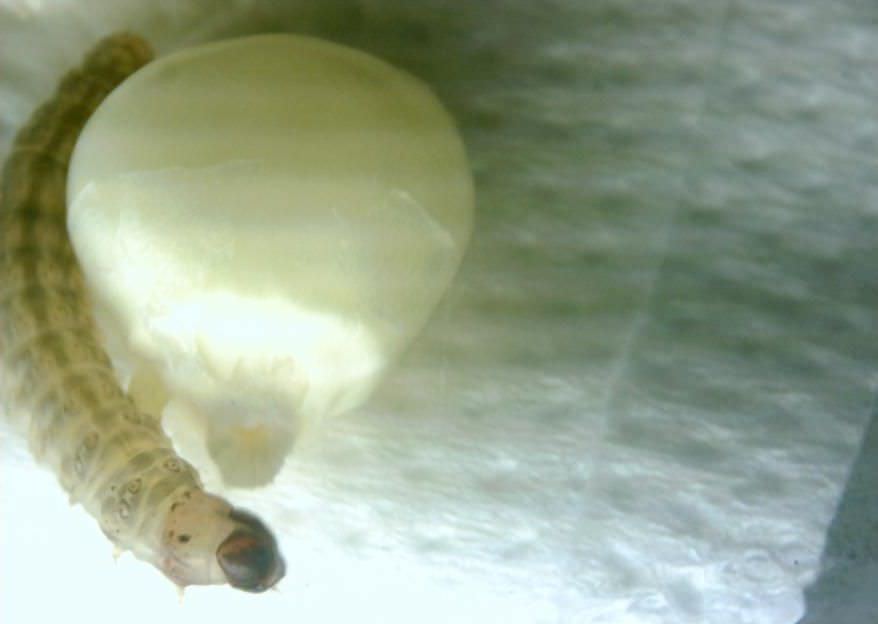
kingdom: Animalia
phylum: Arthropoda
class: Insecta
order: Lepidoptera
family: Noctuidae
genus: Helicoverpa
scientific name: Helicoverpa armigera
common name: Cotton bollworm
